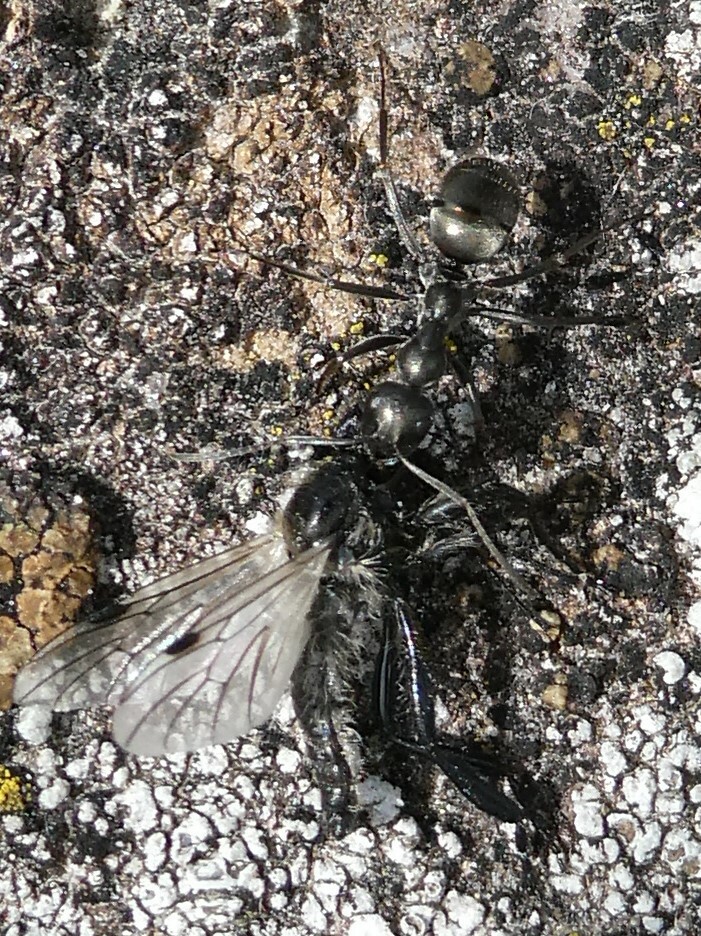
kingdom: Animalia
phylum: Arthropoda
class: Insecta
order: Diptera
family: Bibionidae
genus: Bibio
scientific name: Bibio albipennis
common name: White-winged march fly
